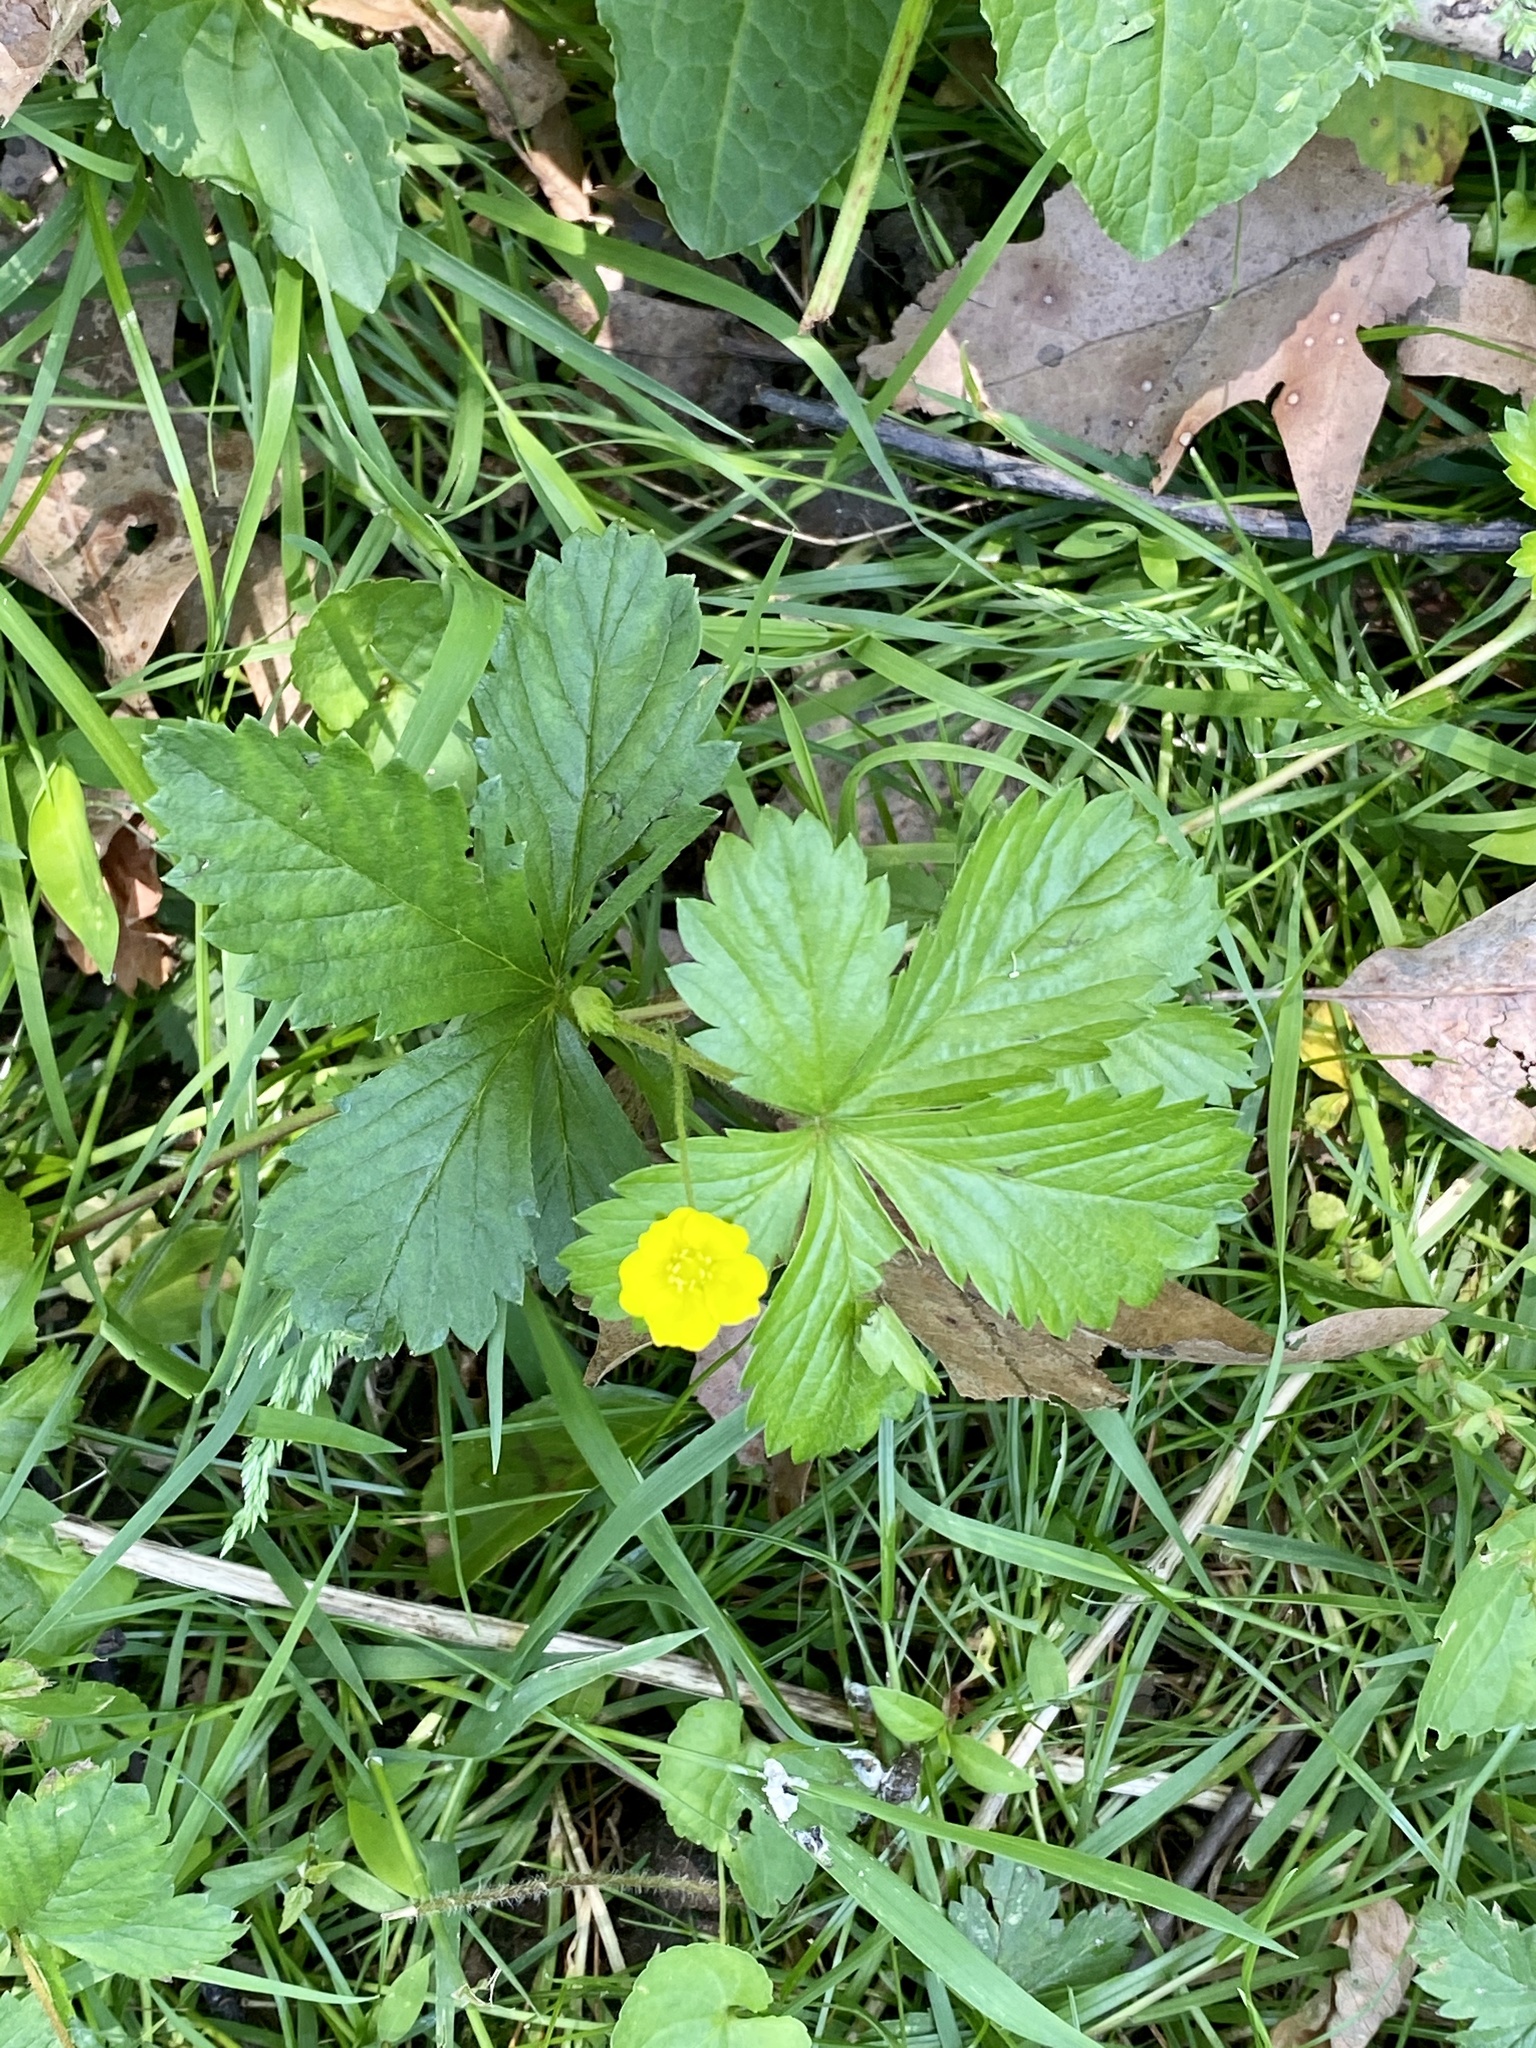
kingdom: Plantae
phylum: Tracheophyta
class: Magnoliopsida
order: Rosales
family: Rosaceae
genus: Potentilla
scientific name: Potentilla simplex
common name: Old field cinquefoil
